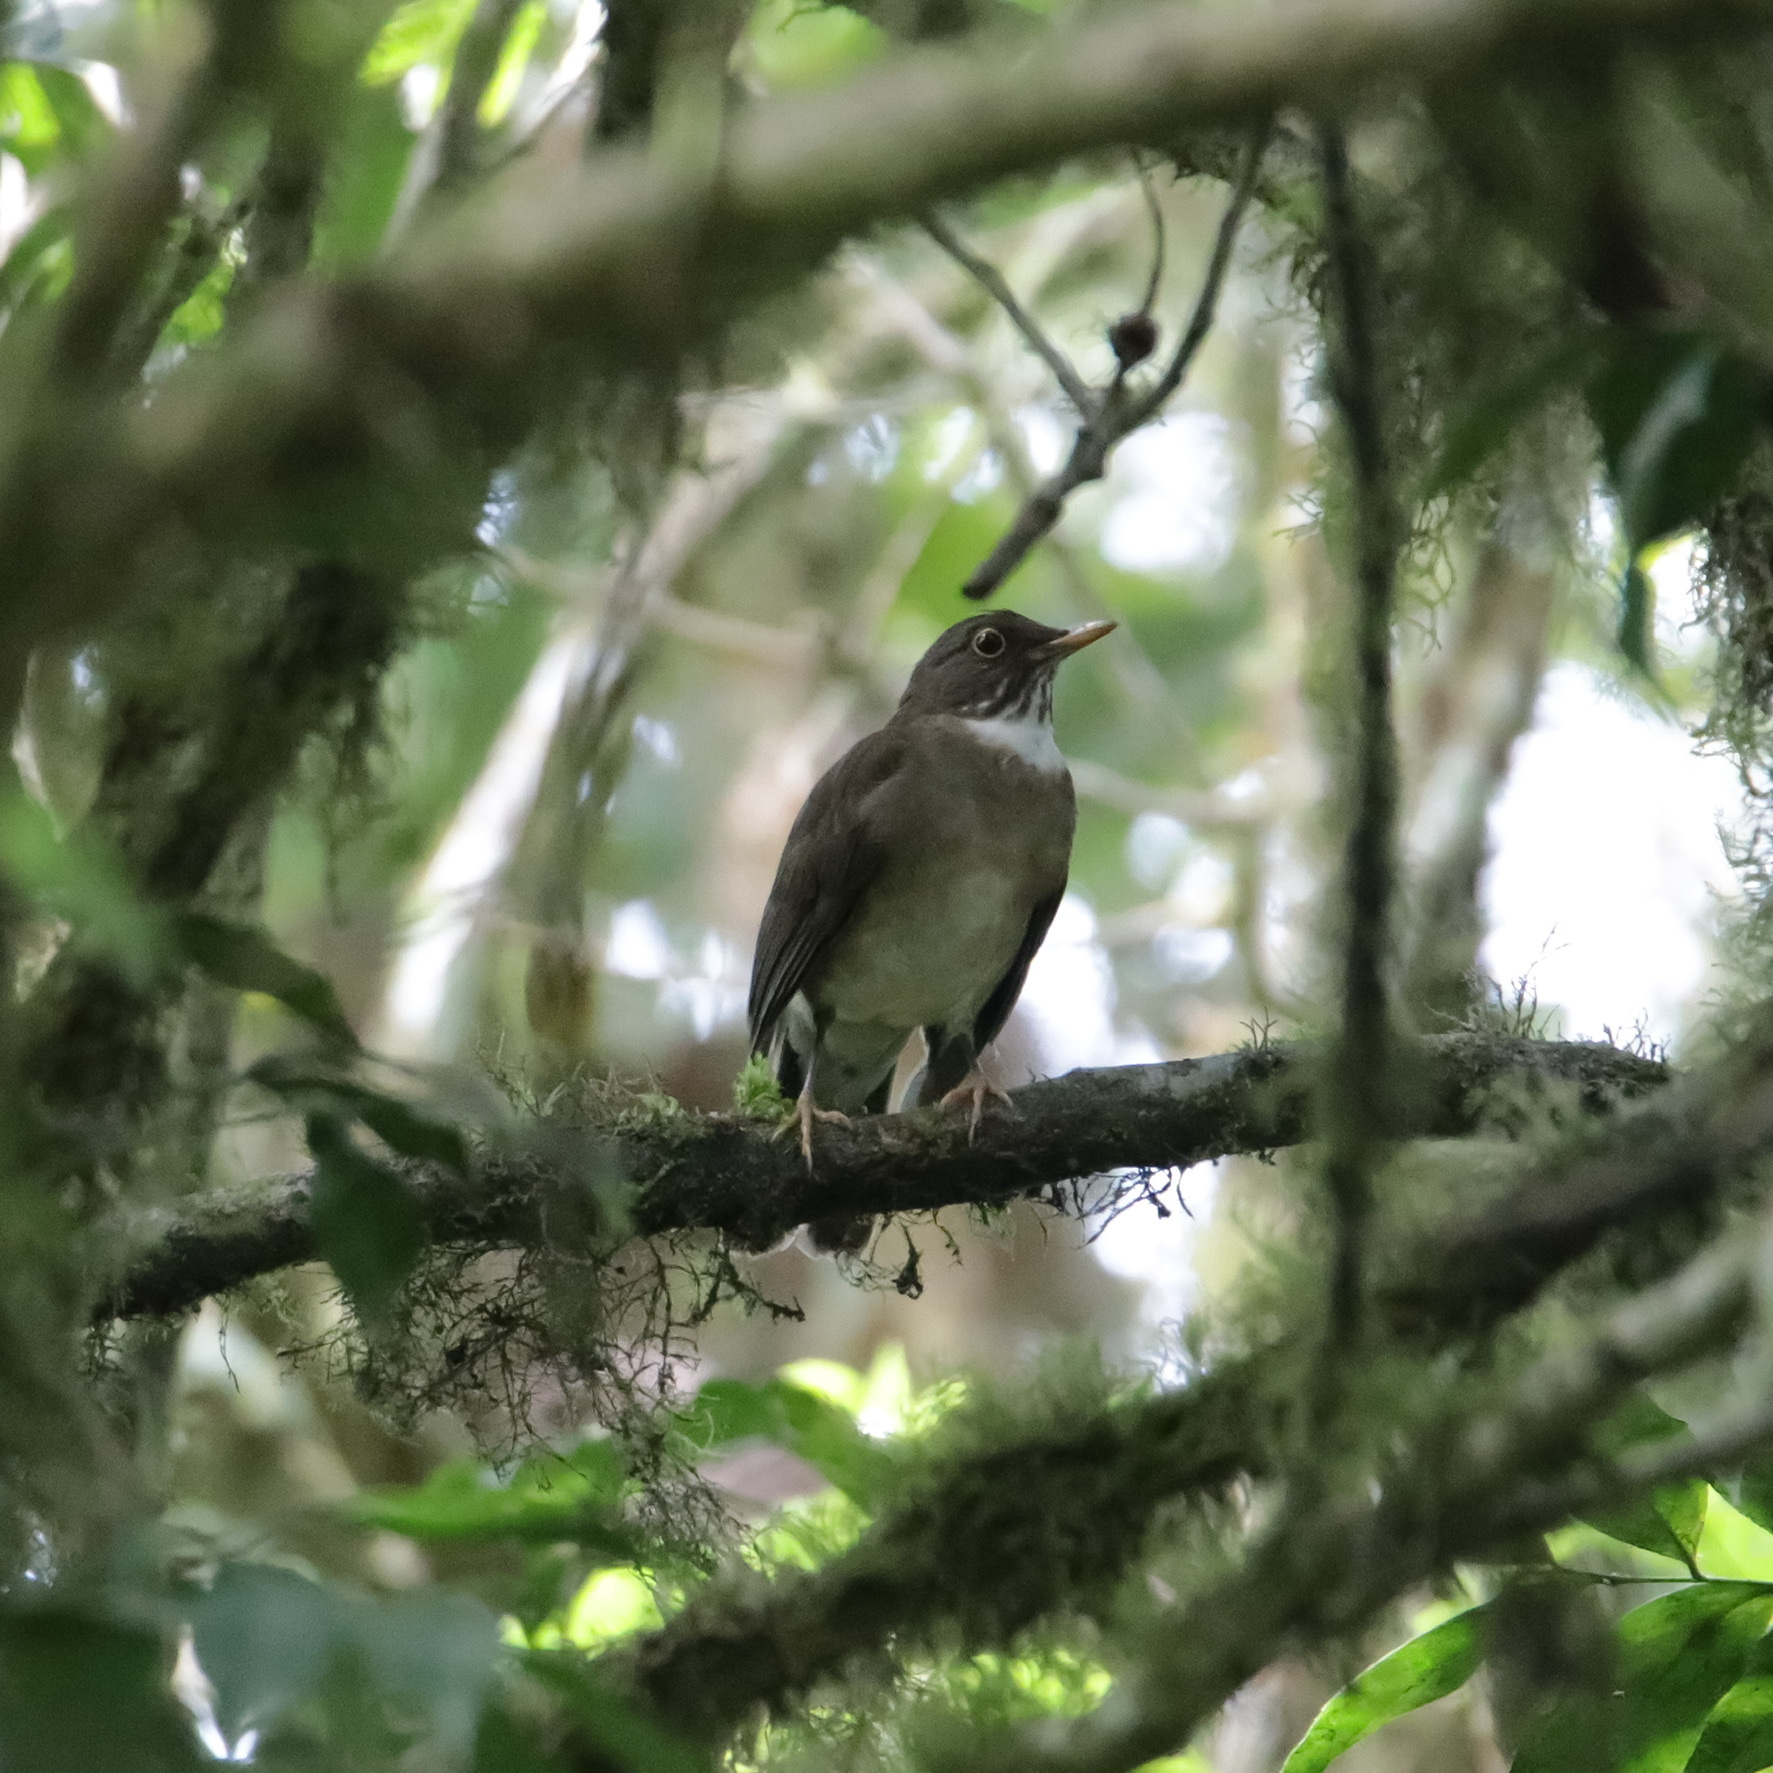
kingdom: Animalia
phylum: Chordata
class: Aves
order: Passeriformes
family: Turdidae
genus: Turdus
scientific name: Turdus assimilis
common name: White-throated thrush
